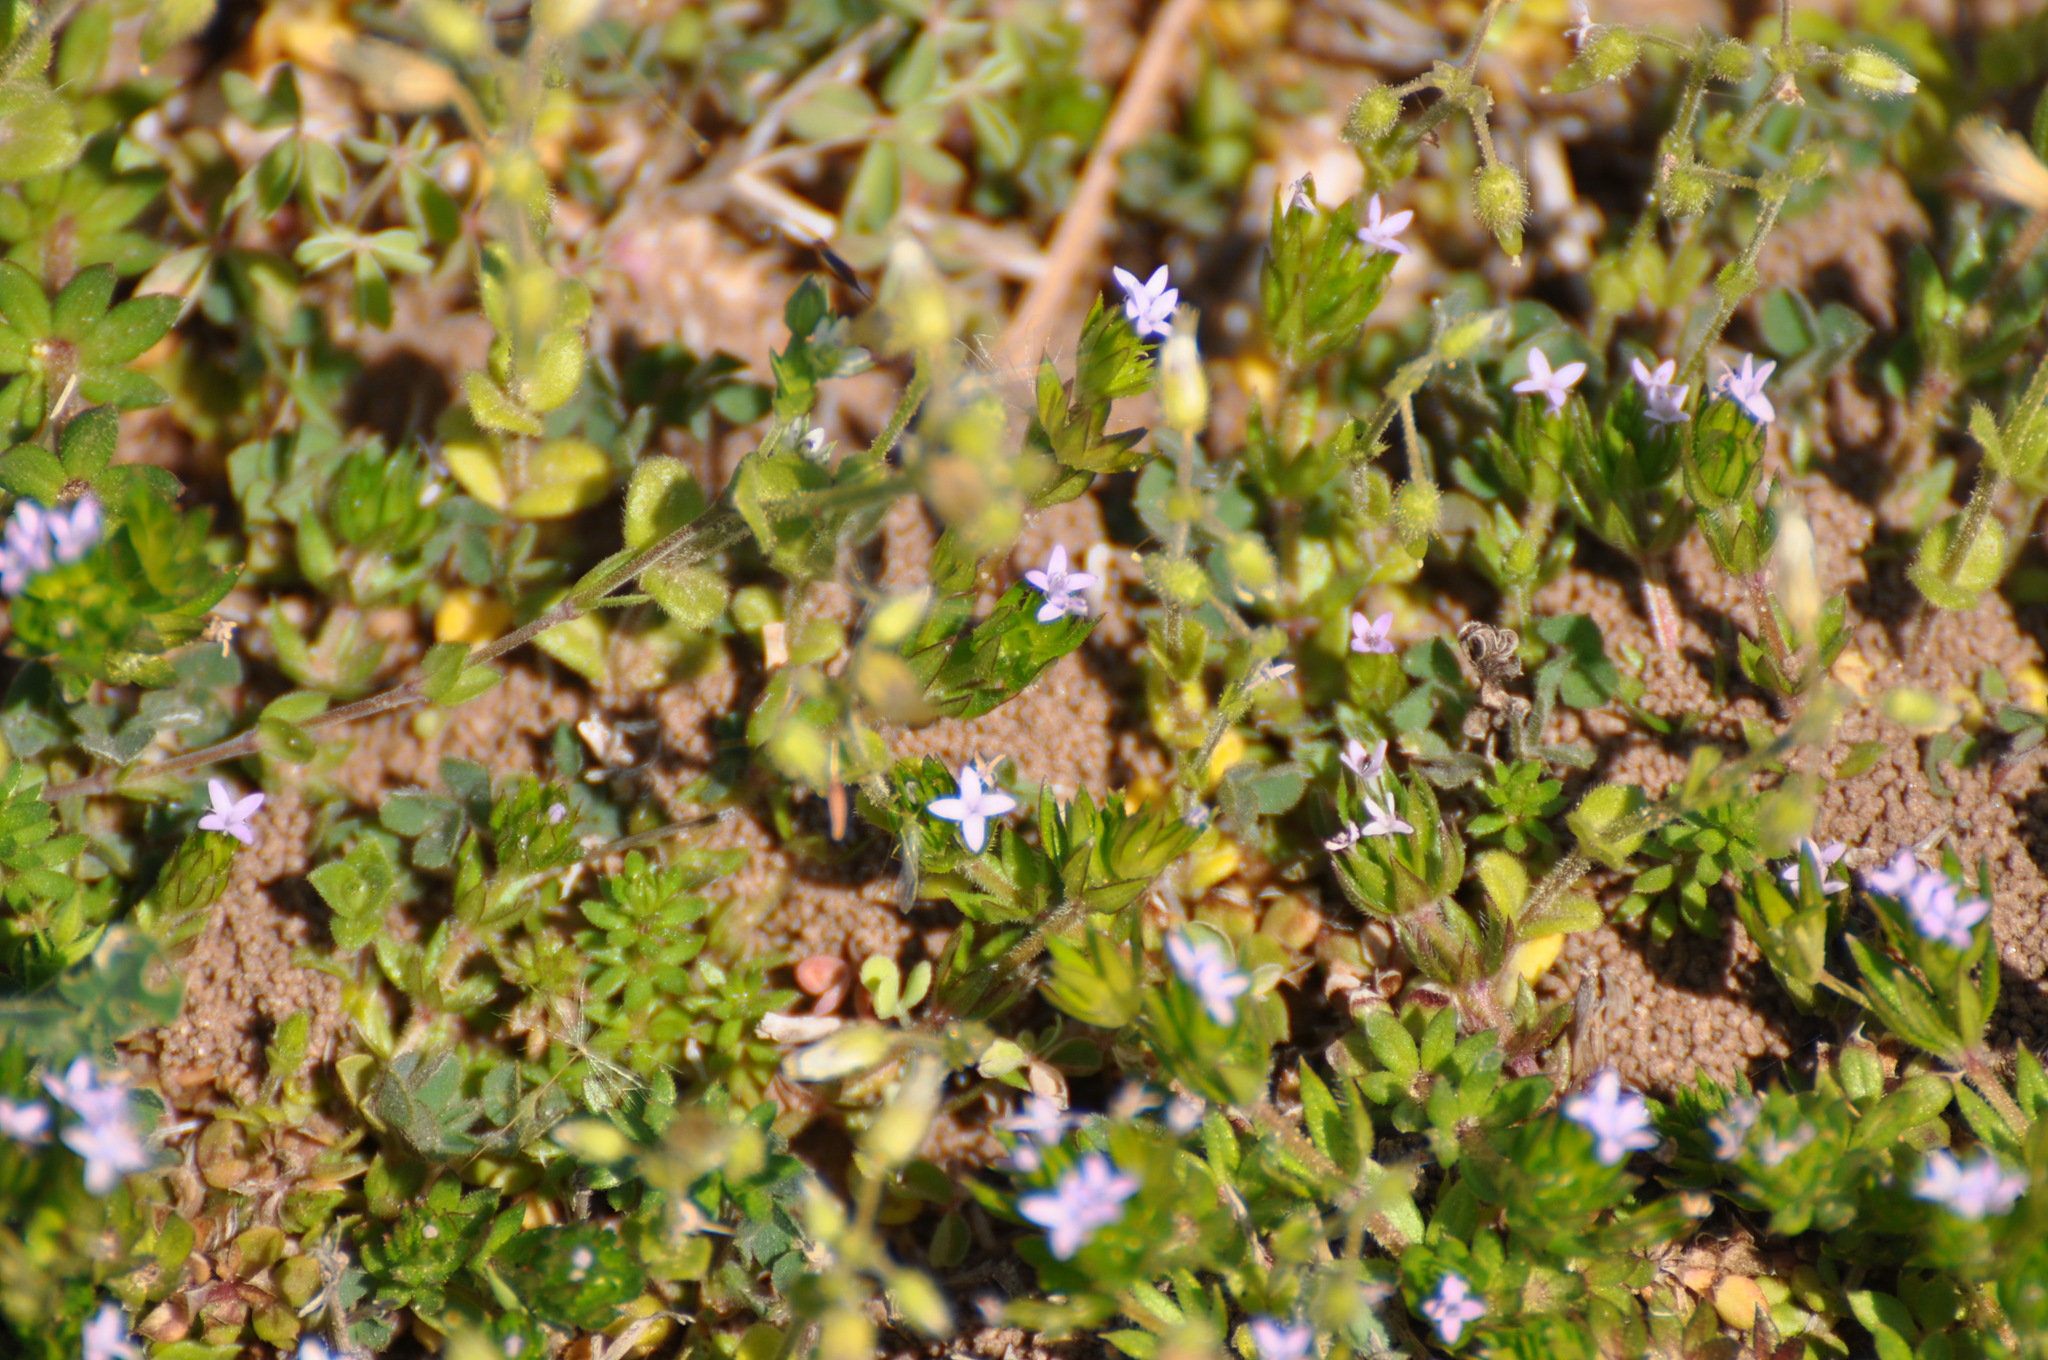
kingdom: Plantae
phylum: Tracheophyta
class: Magnoliopsida
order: Gentianales
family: Rubiaceae
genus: Sherardia
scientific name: Sherardia arvensis
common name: Field madder
